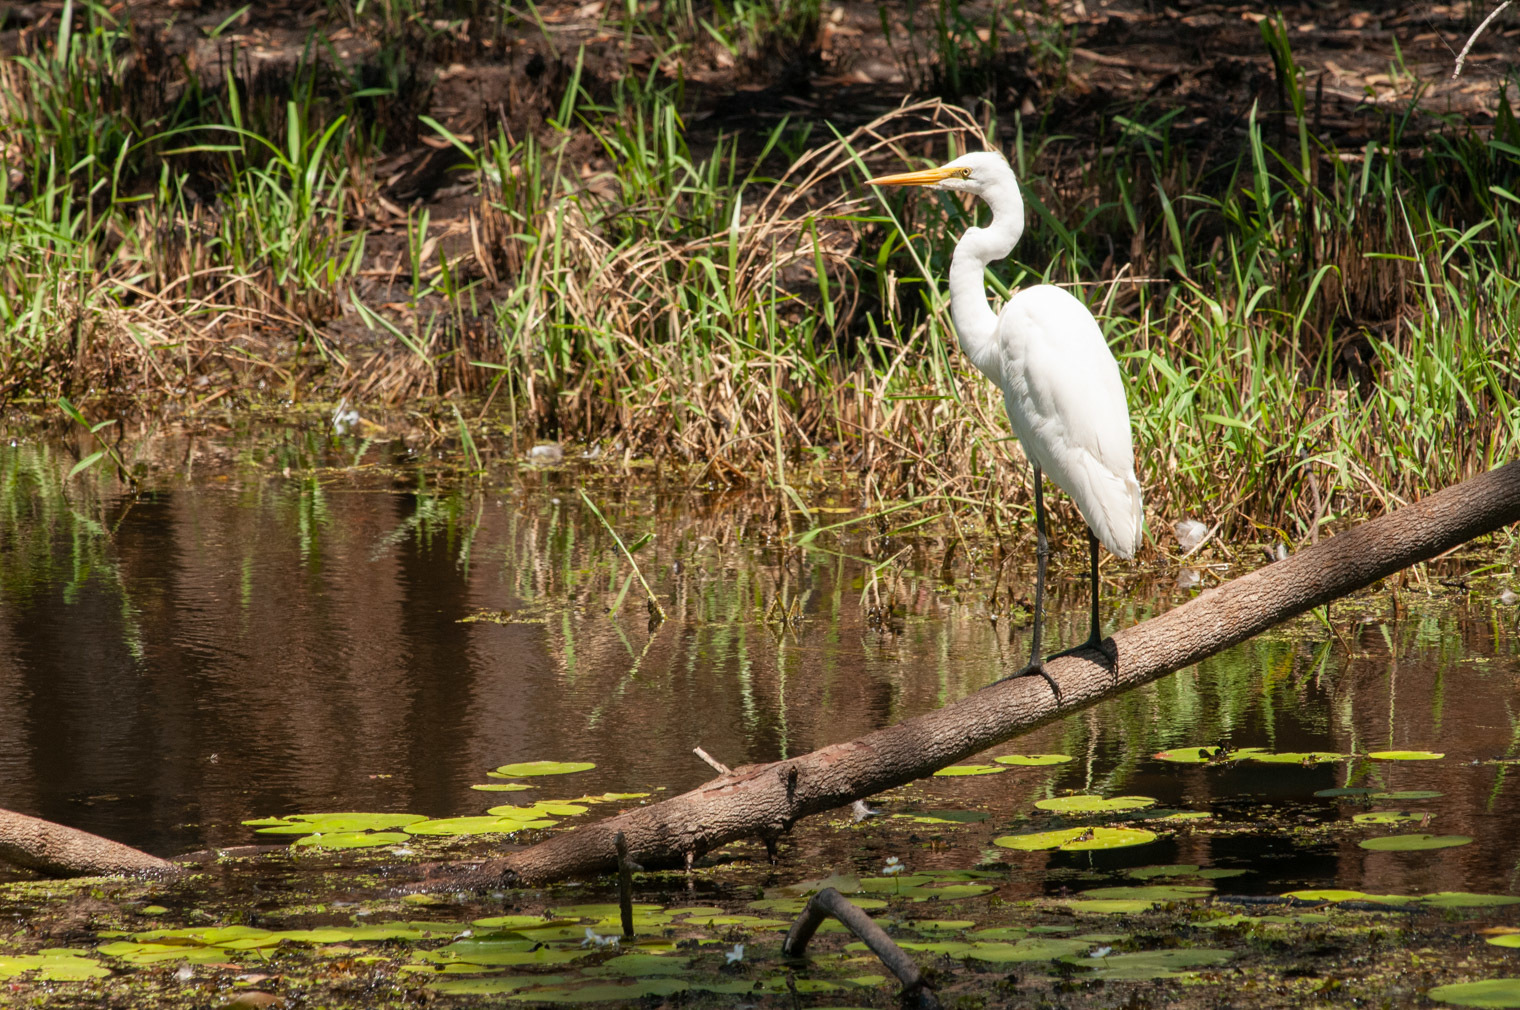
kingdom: Animalia
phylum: Chordata
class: Aves
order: Pelecaniformes
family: Ardeidae
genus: Ardea
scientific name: Ardea alba
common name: Great egret
